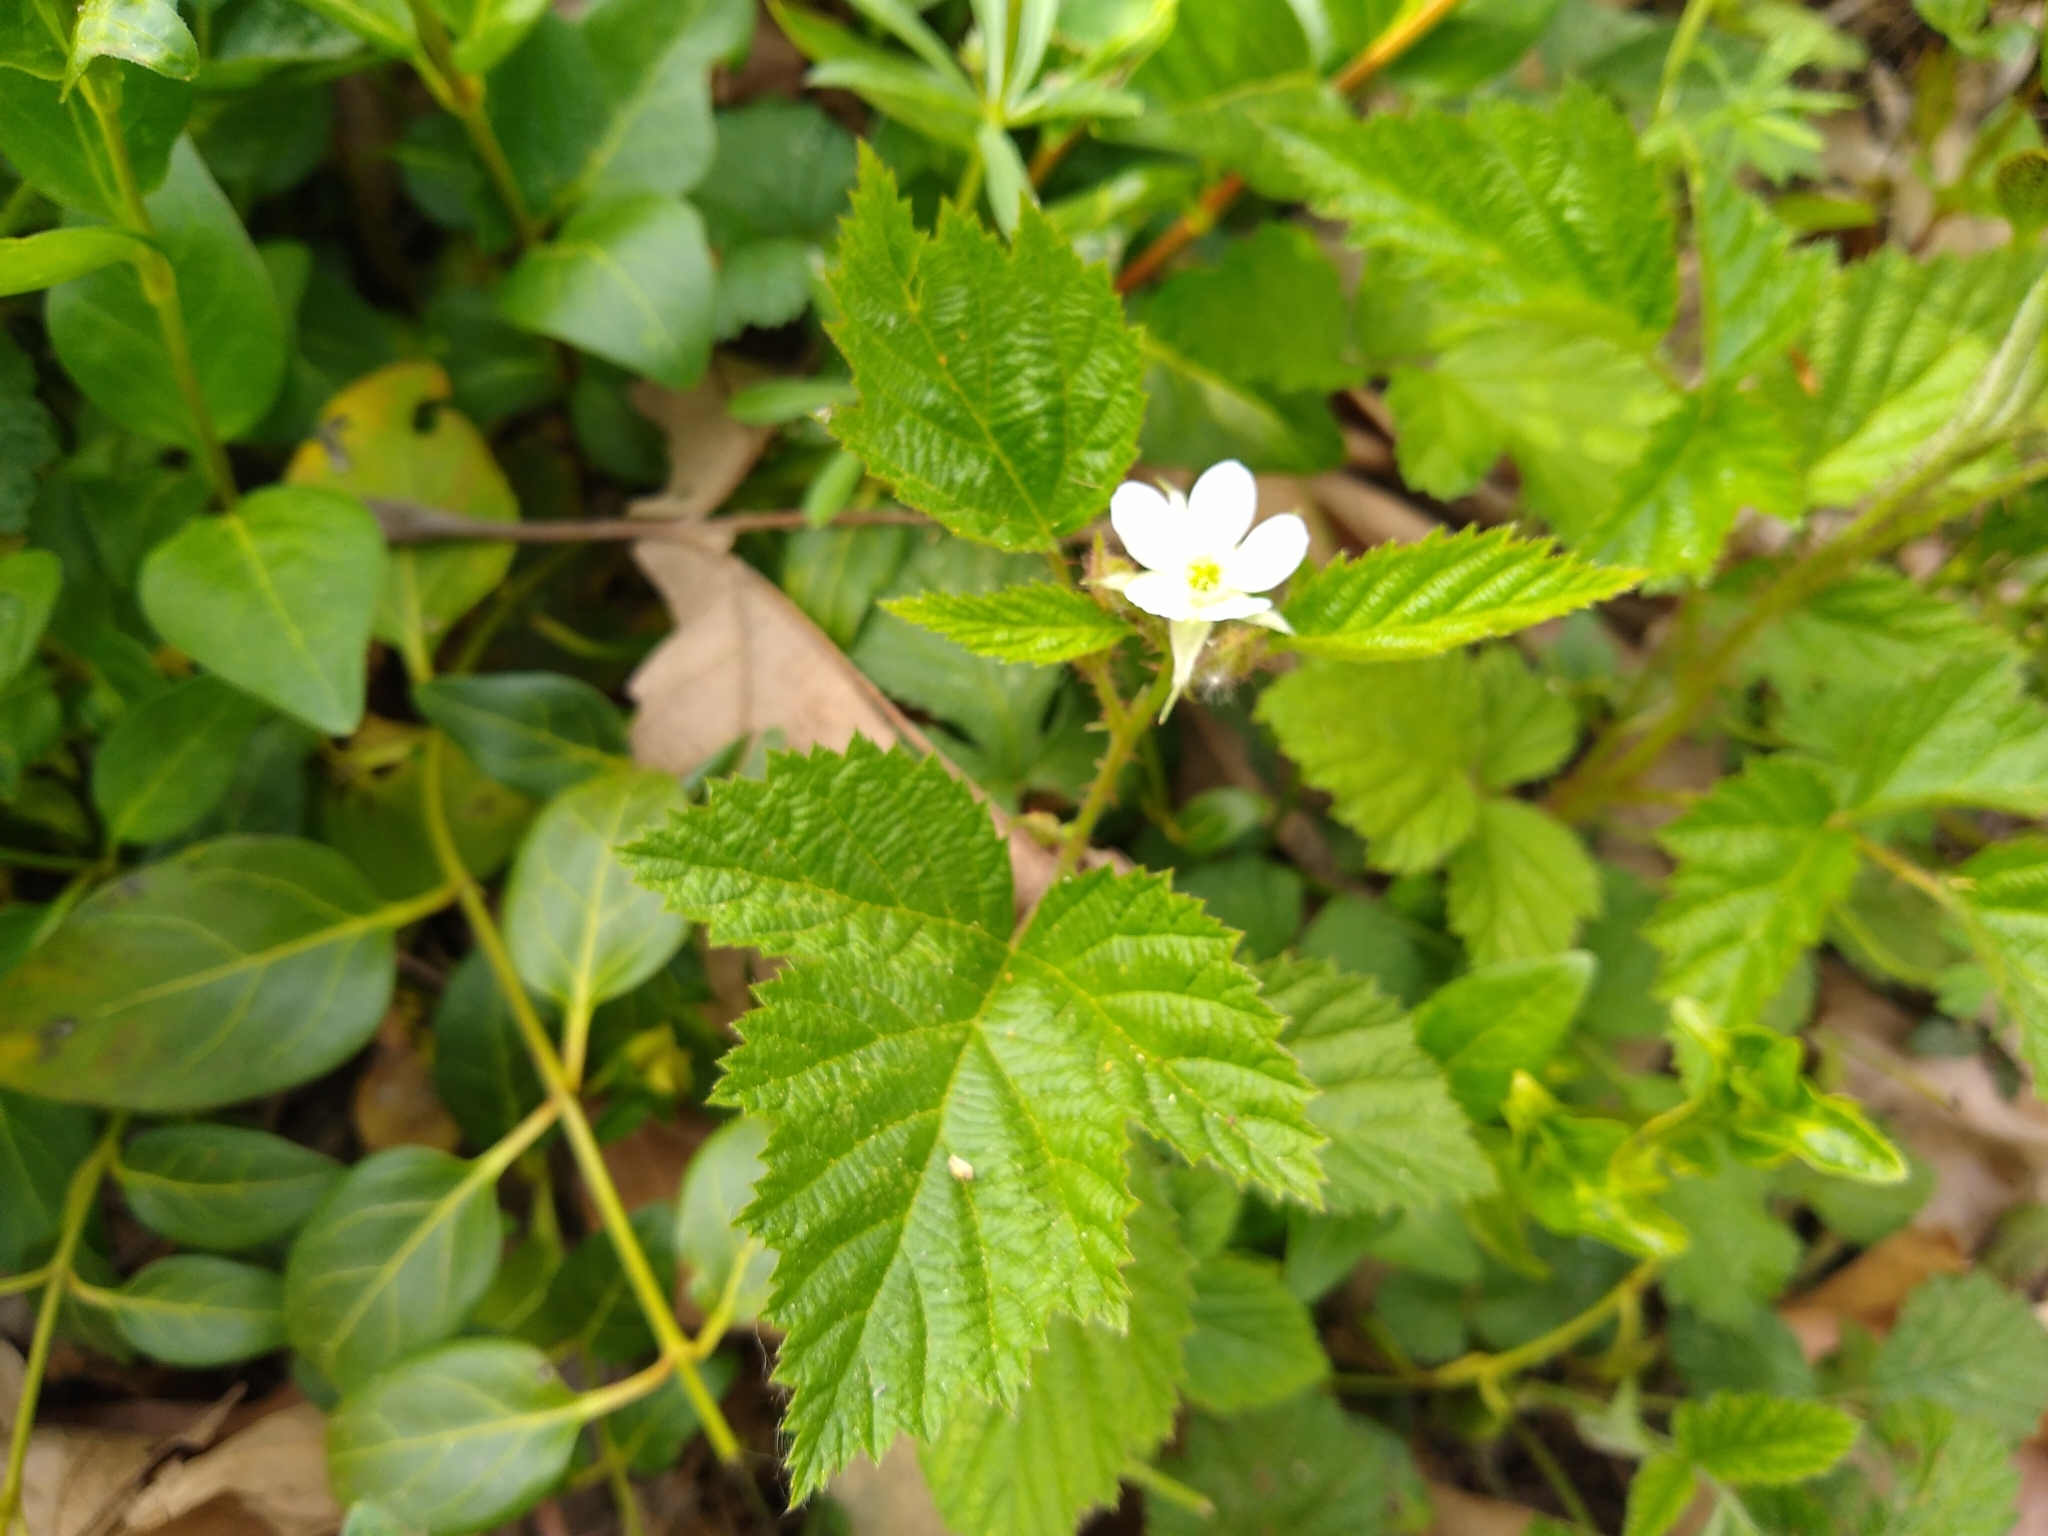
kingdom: Plantae
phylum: Tracheophyta
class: Magnoliopsida
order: Rosales
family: Rosaceae
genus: Rubus
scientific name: Rubus ursinus
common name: Pacific blackberry
